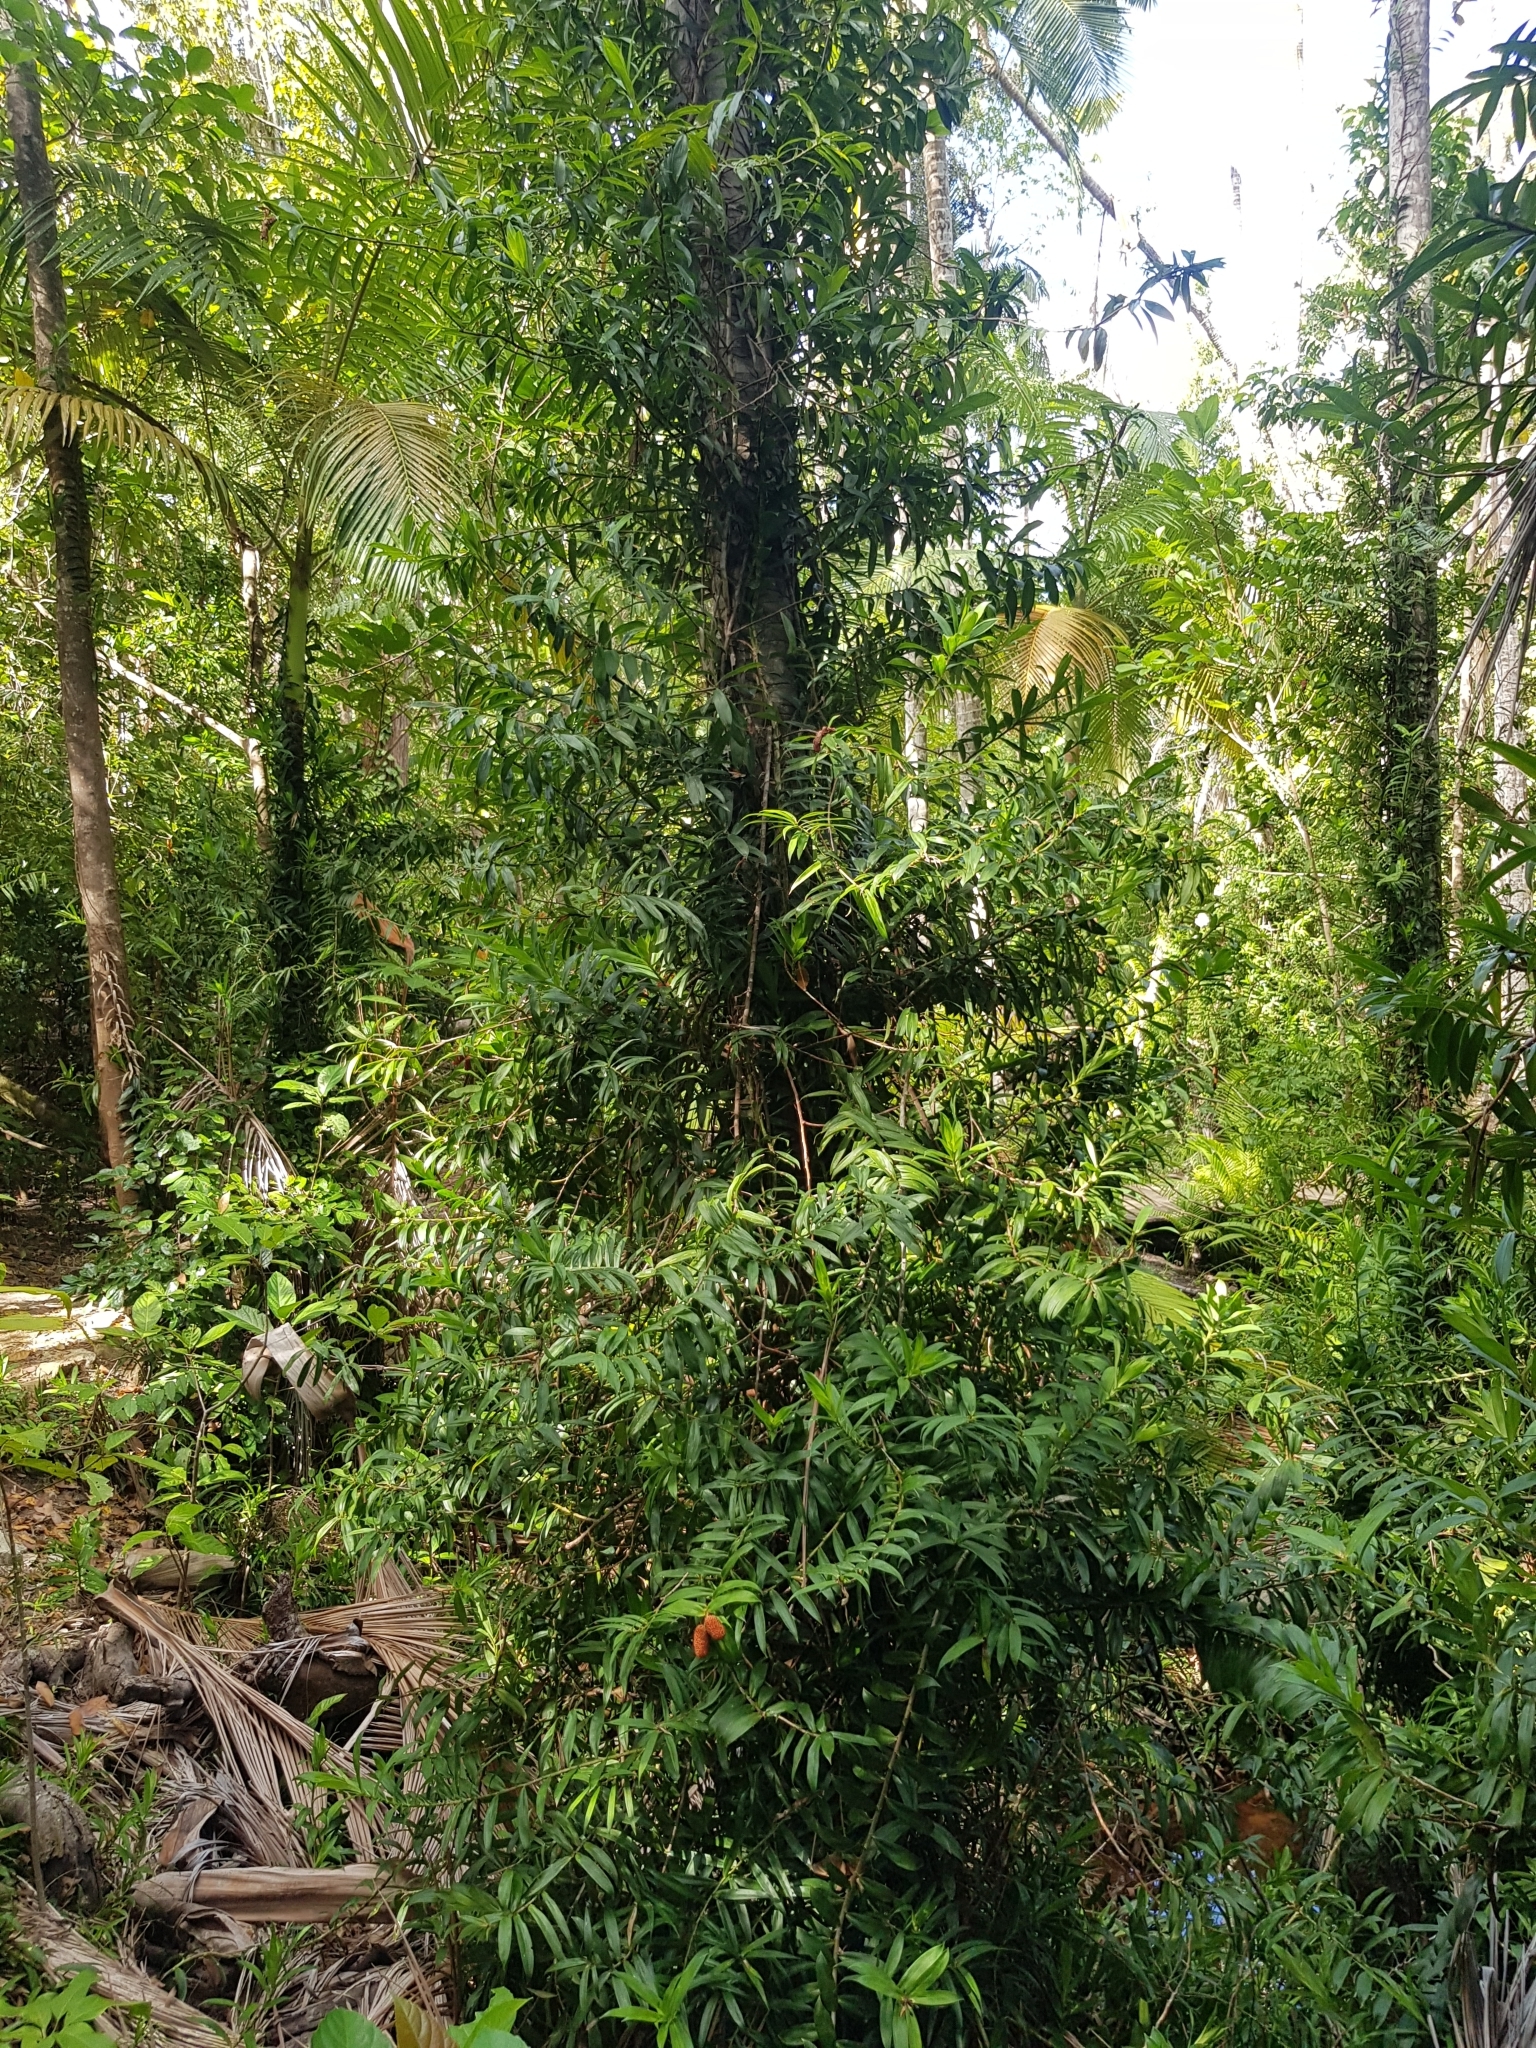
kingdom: Plantae
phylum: Tracheophyta
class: Liliopsida
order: Pandanales
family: Pandanaceae
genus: Freycinetia
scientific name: Freycinetia scandens
